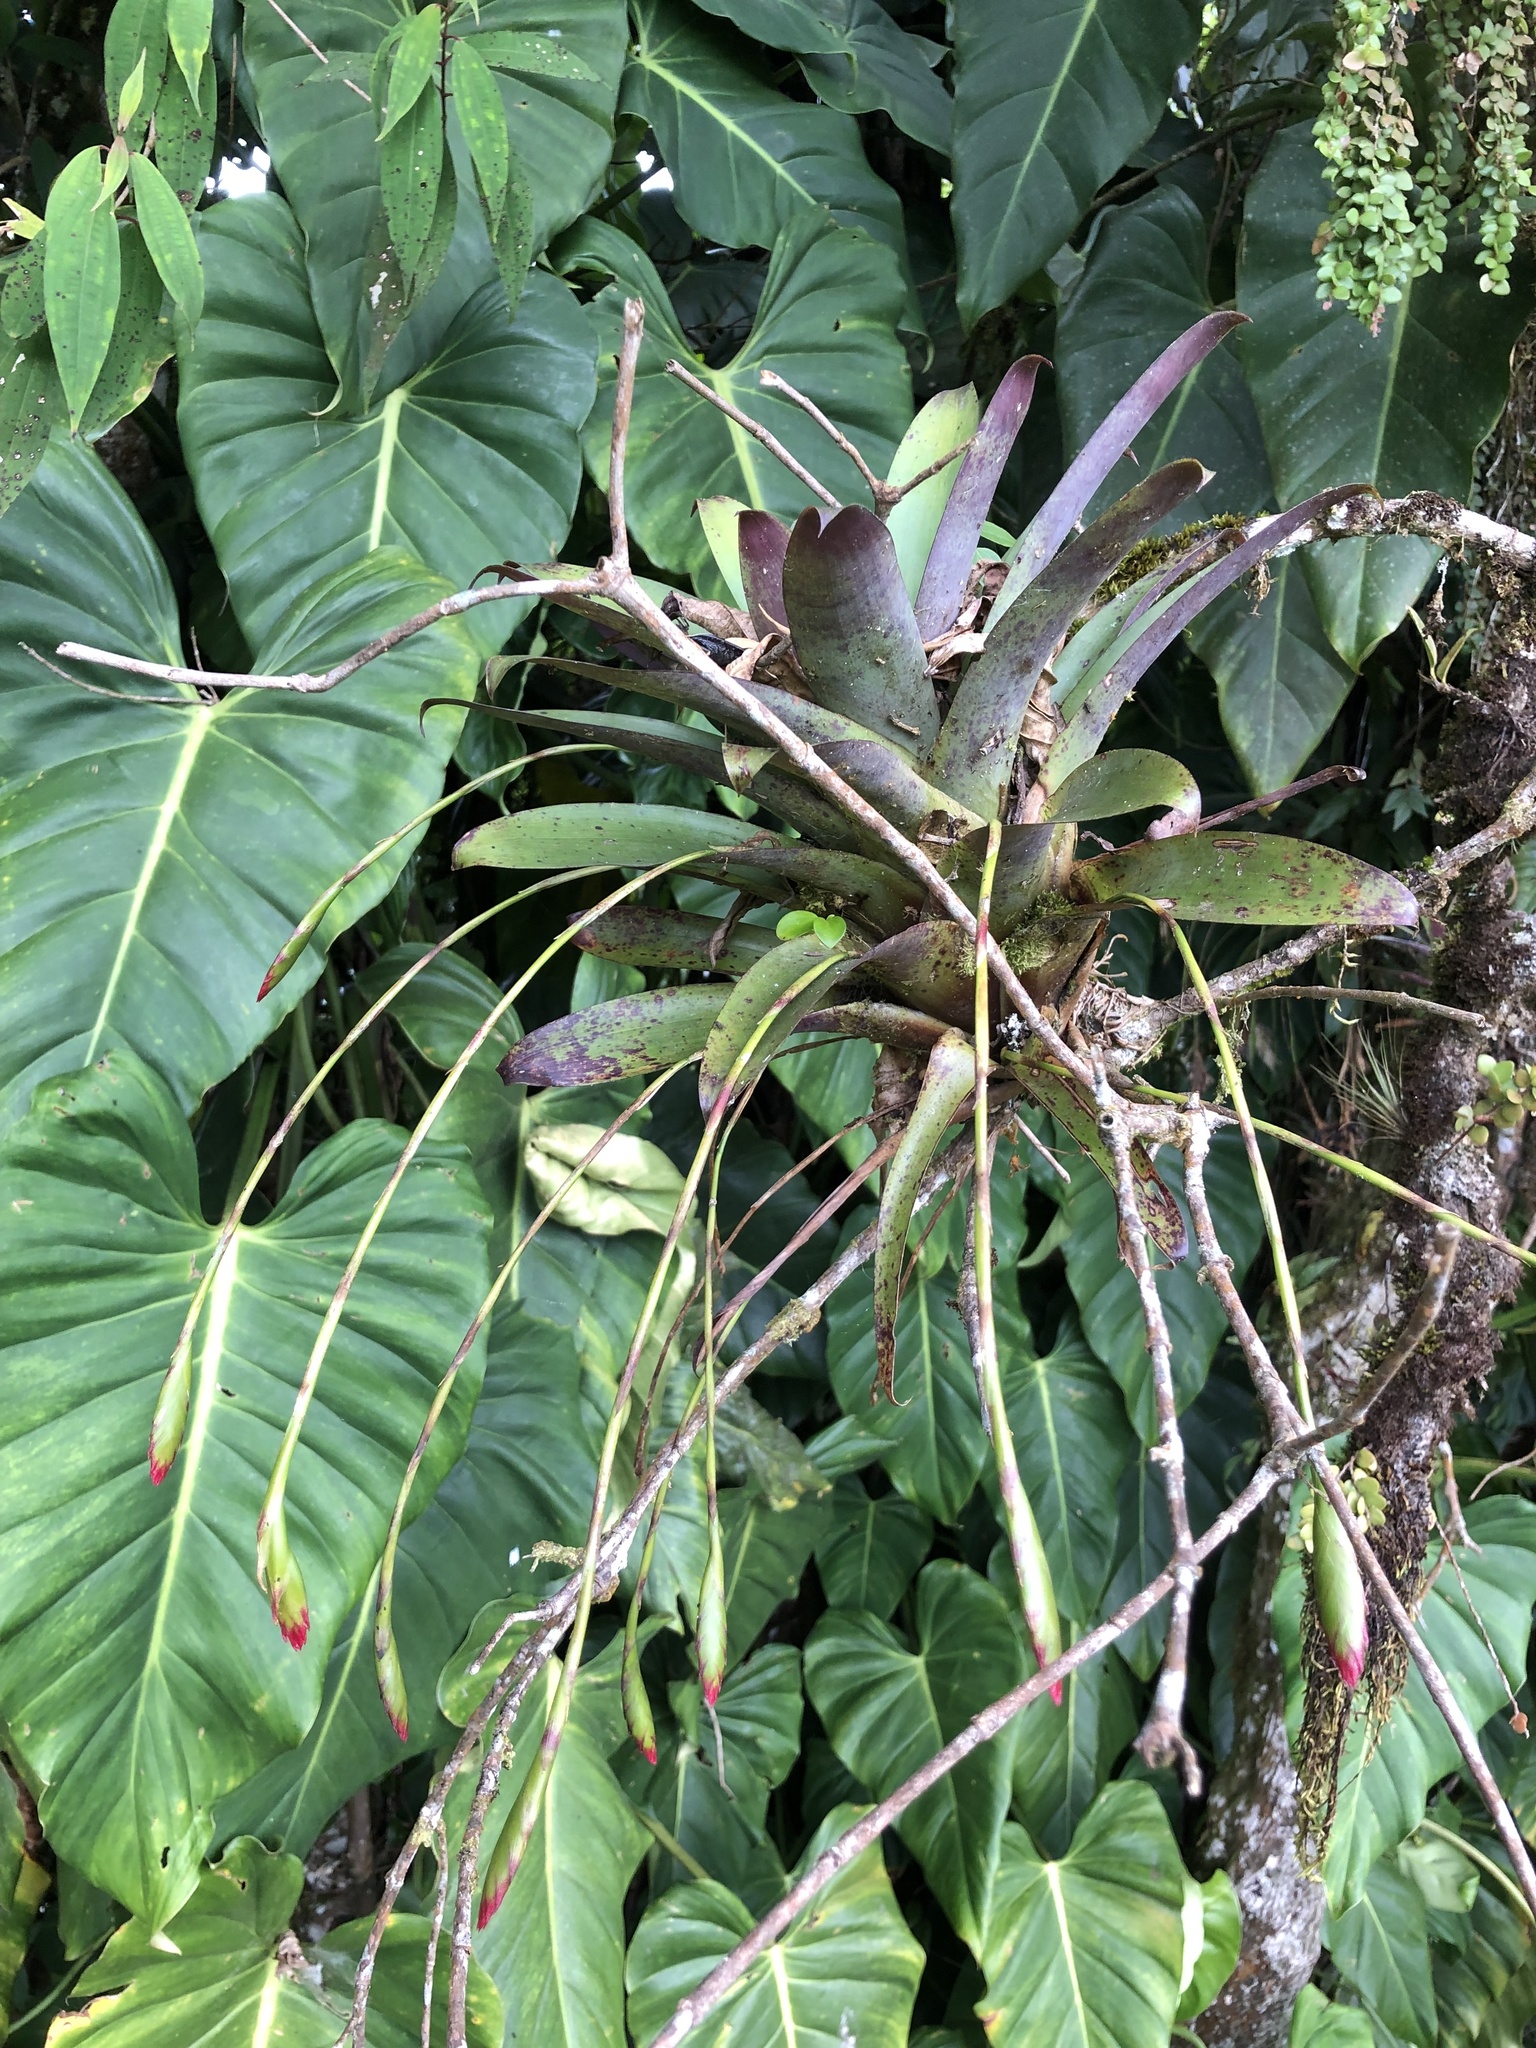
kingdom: Plantae
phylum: Tracheophyta
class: Liliopsida
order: Poales
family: Bromeliaceae
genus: Tillandsia
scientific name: Tillandsia complanata
